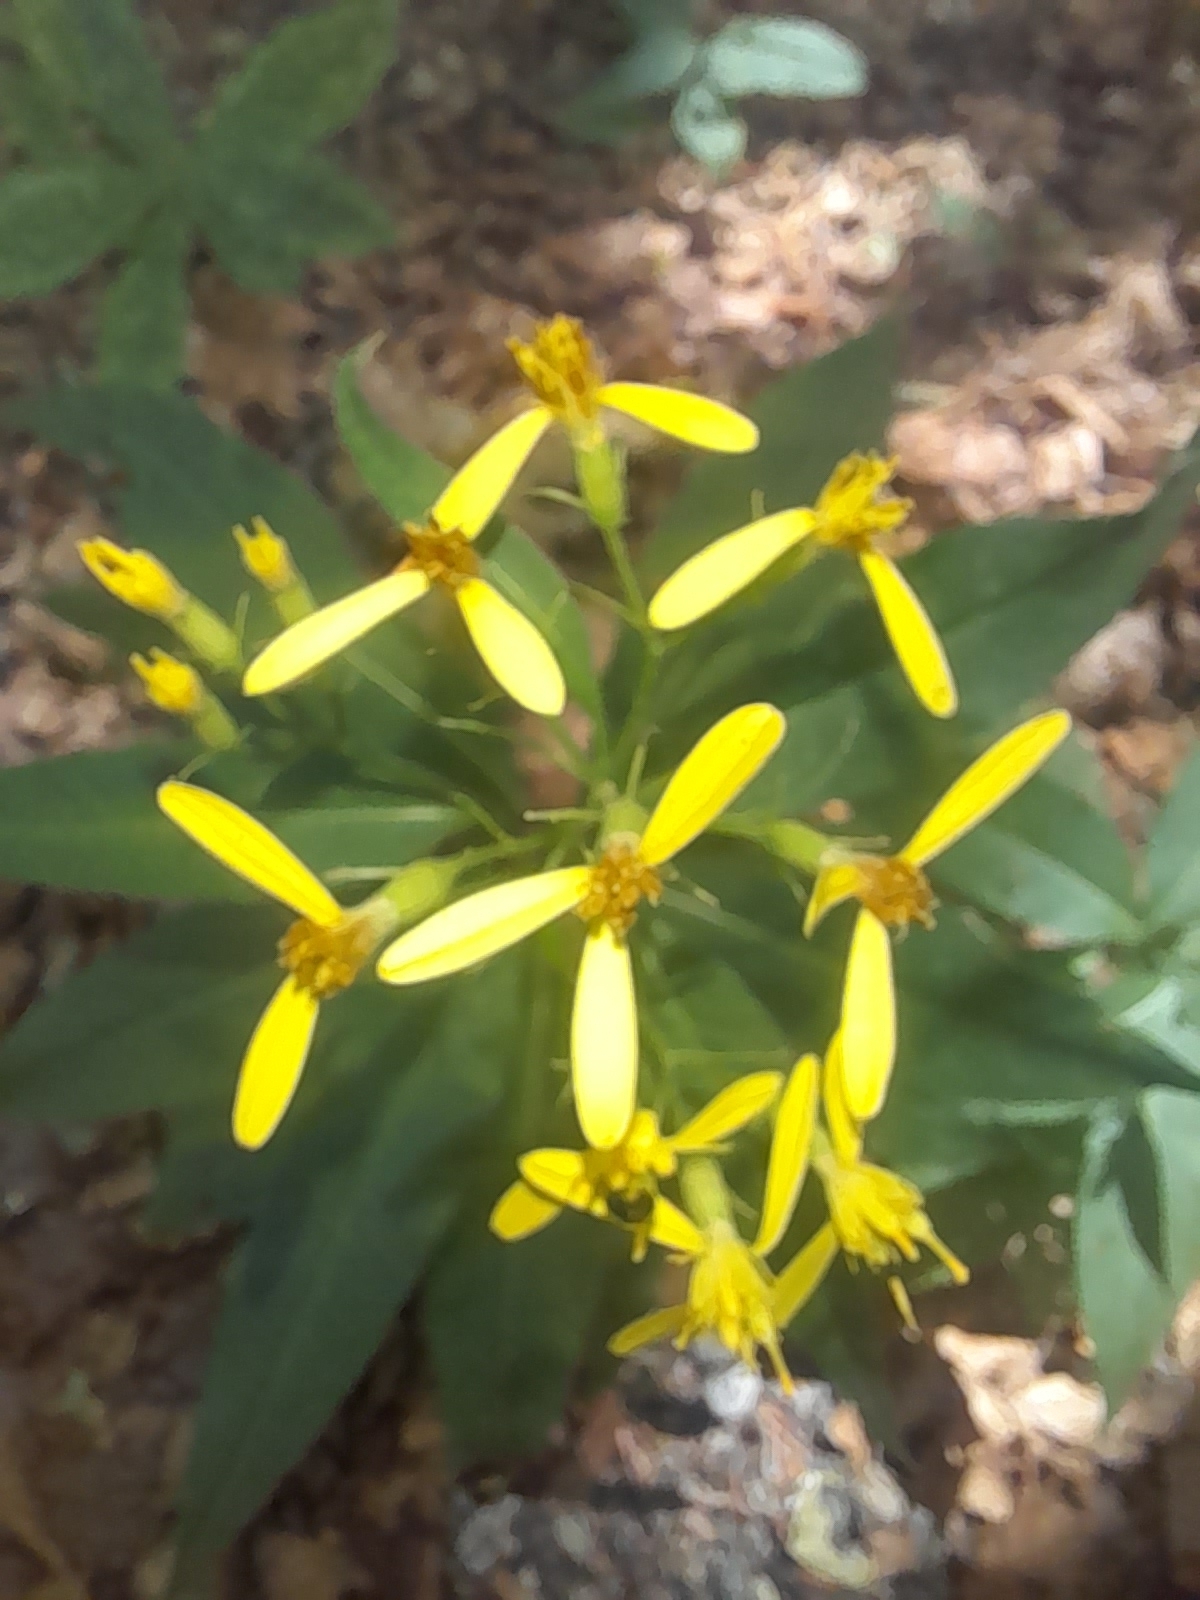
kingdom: Plantae
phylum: Tracheophyta
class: Magnoliopsida
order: Asterales
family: Asteraceae
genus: Senecio
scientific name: Senecio ovatus
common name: Wood ragwort
